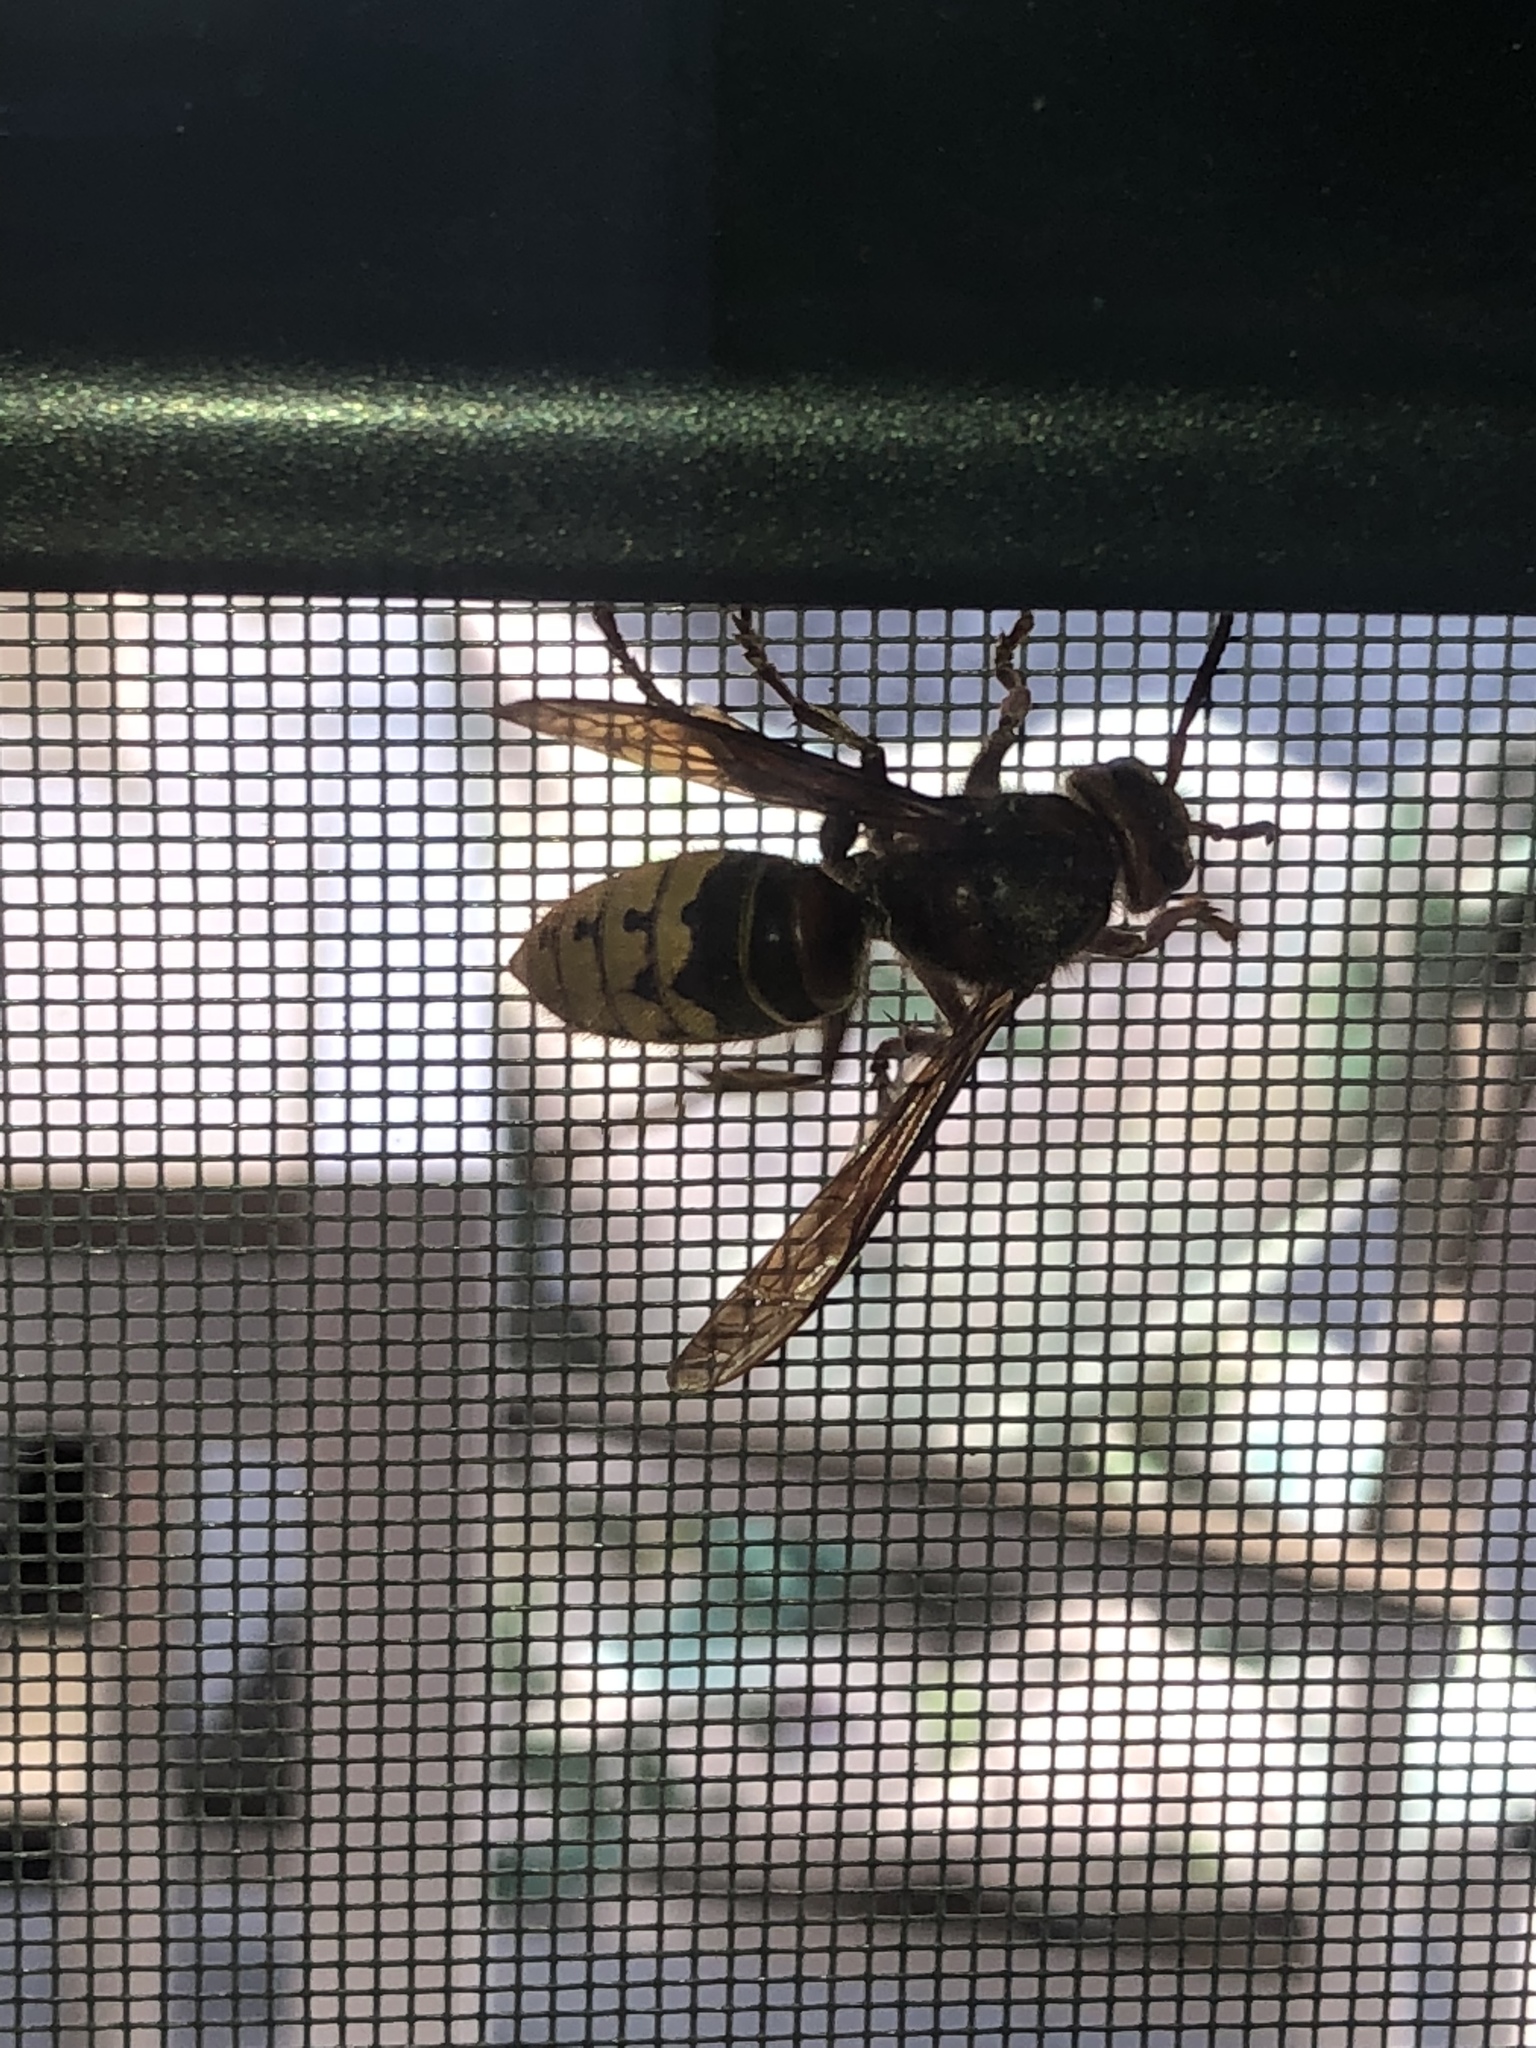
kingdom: Animalia
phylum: Arthropoda
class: Insecta
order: Hymenoptera
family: Vespidae
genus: Vespa
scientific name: Vespa crabro
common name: Hornet
